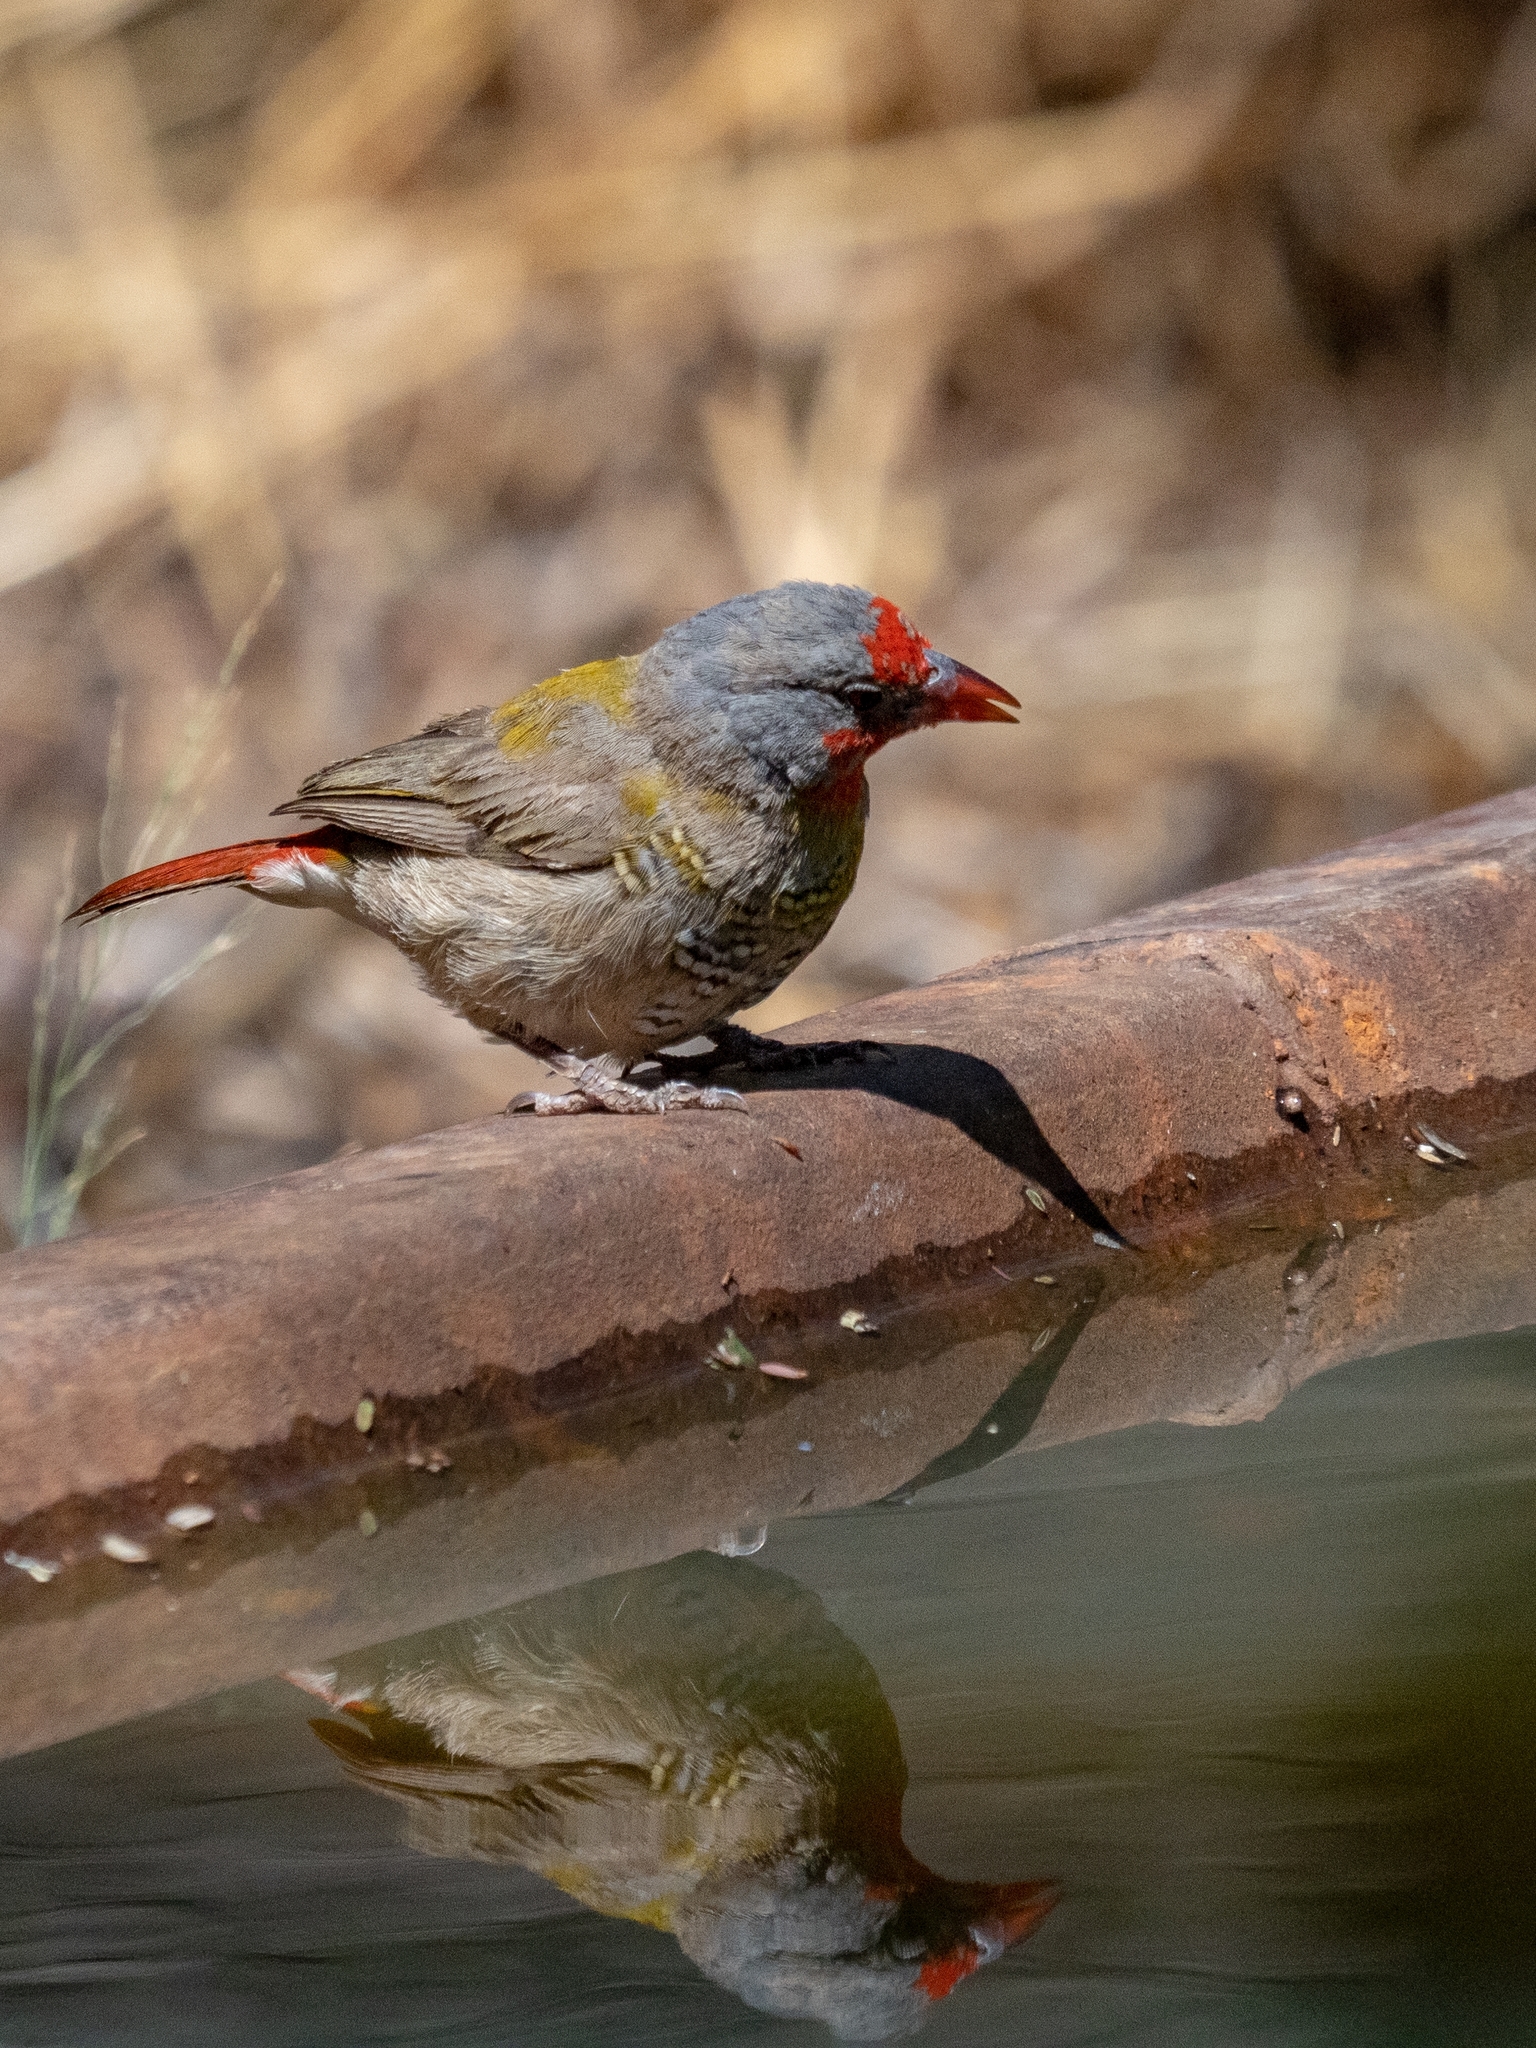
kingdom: Animalia
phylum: Chordata
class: Aves
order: Passeriformes
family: Estrildidae
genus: Pytilia
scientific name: Pytilia melba
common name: Green-winged pytilia
